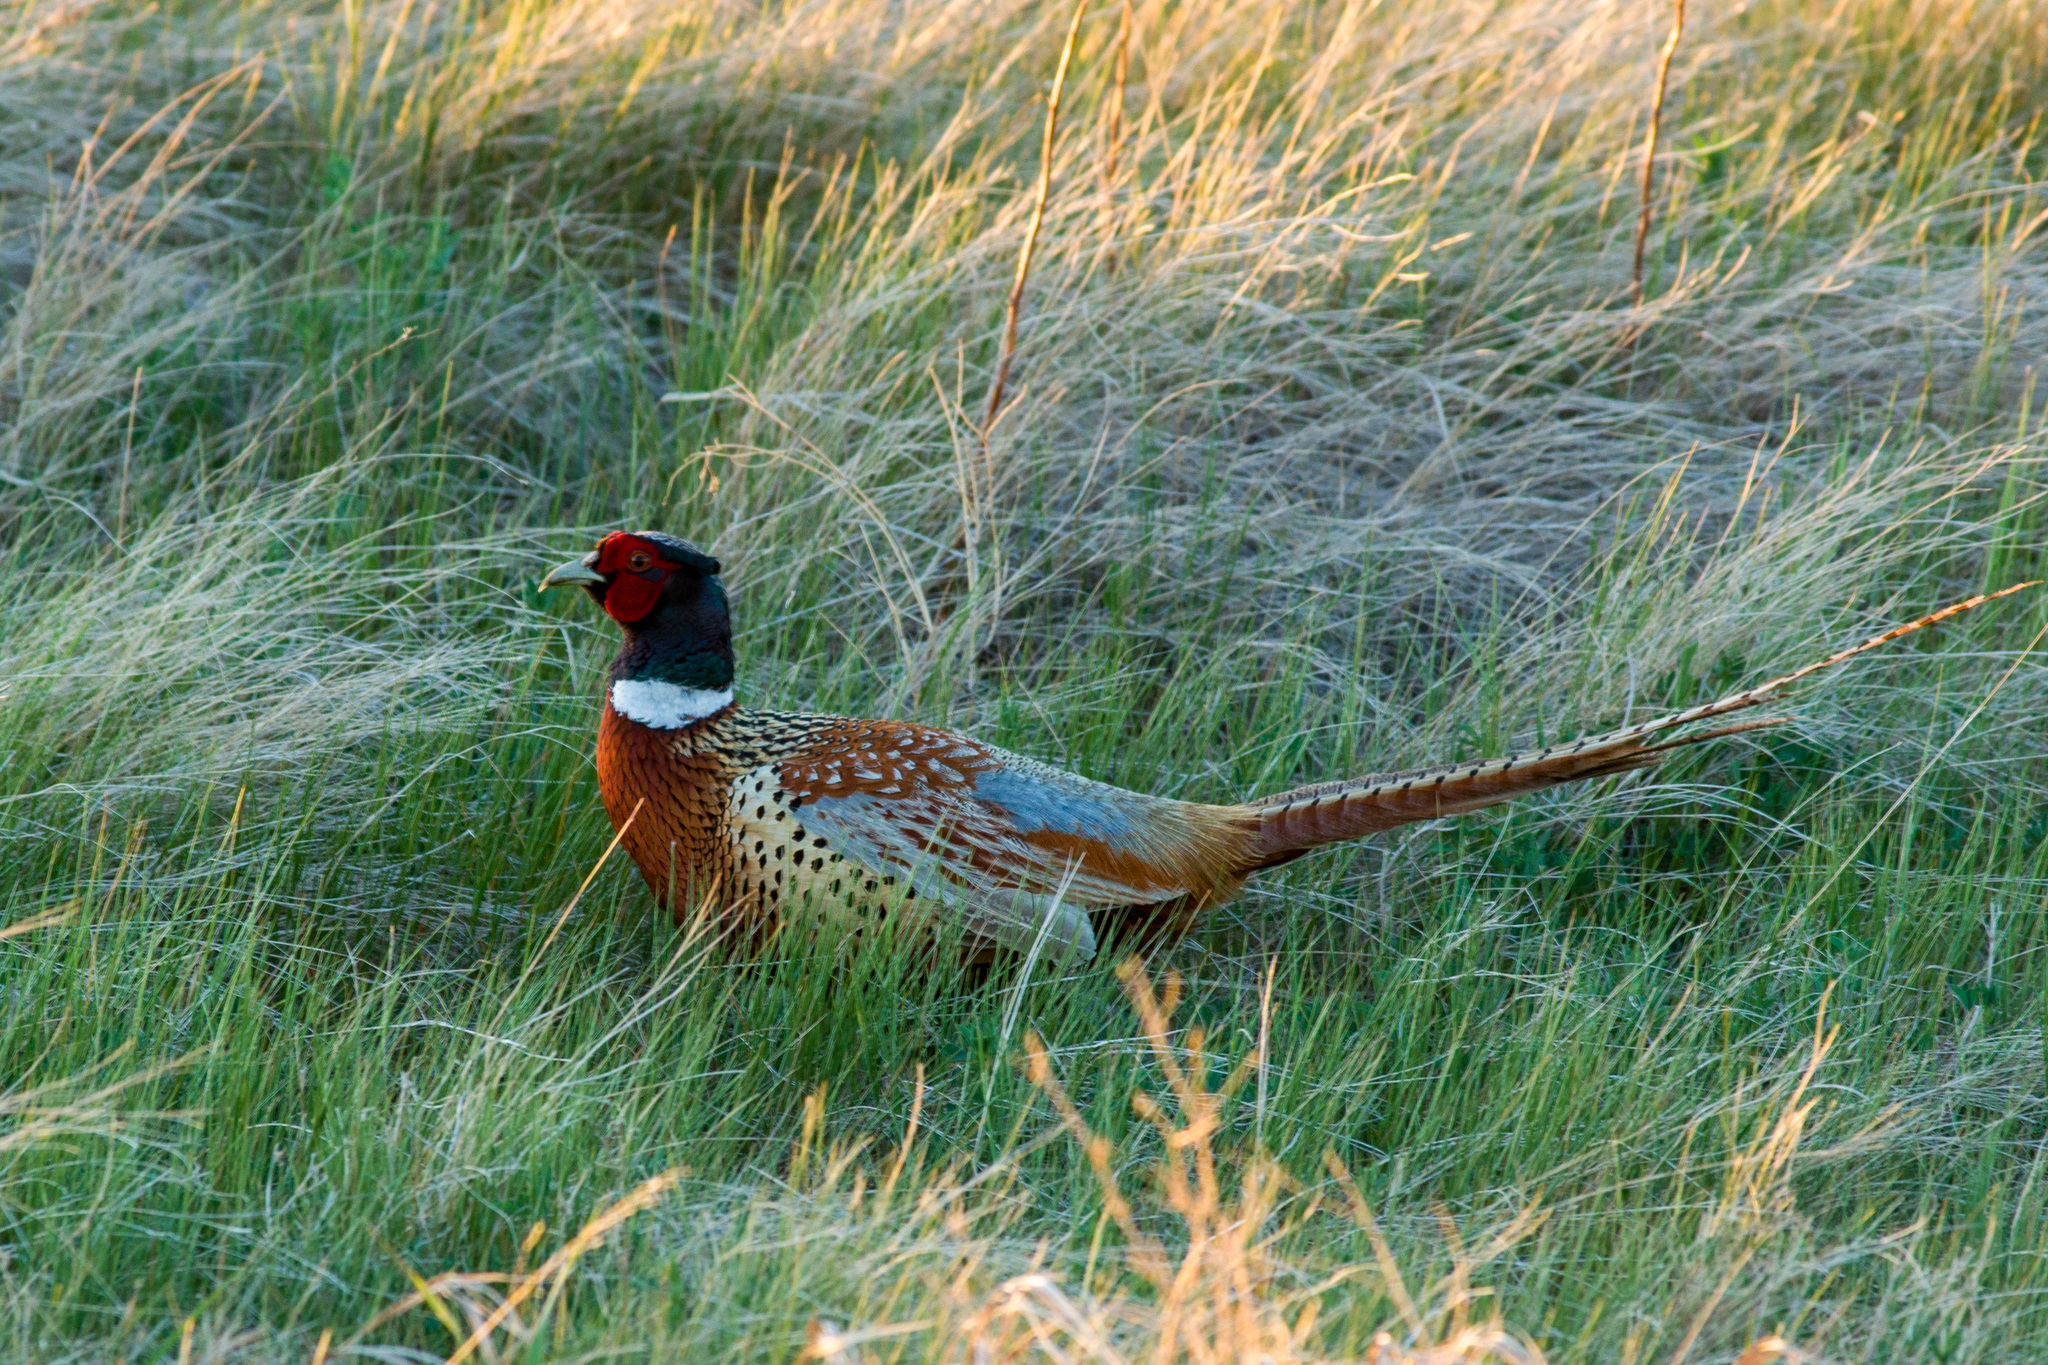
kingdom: Animalia
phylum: Chordata
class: Aves
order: Galliformes
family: Phasianidae
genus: Phasianus
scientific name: Phasianus colchicus
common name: Common pheasant
